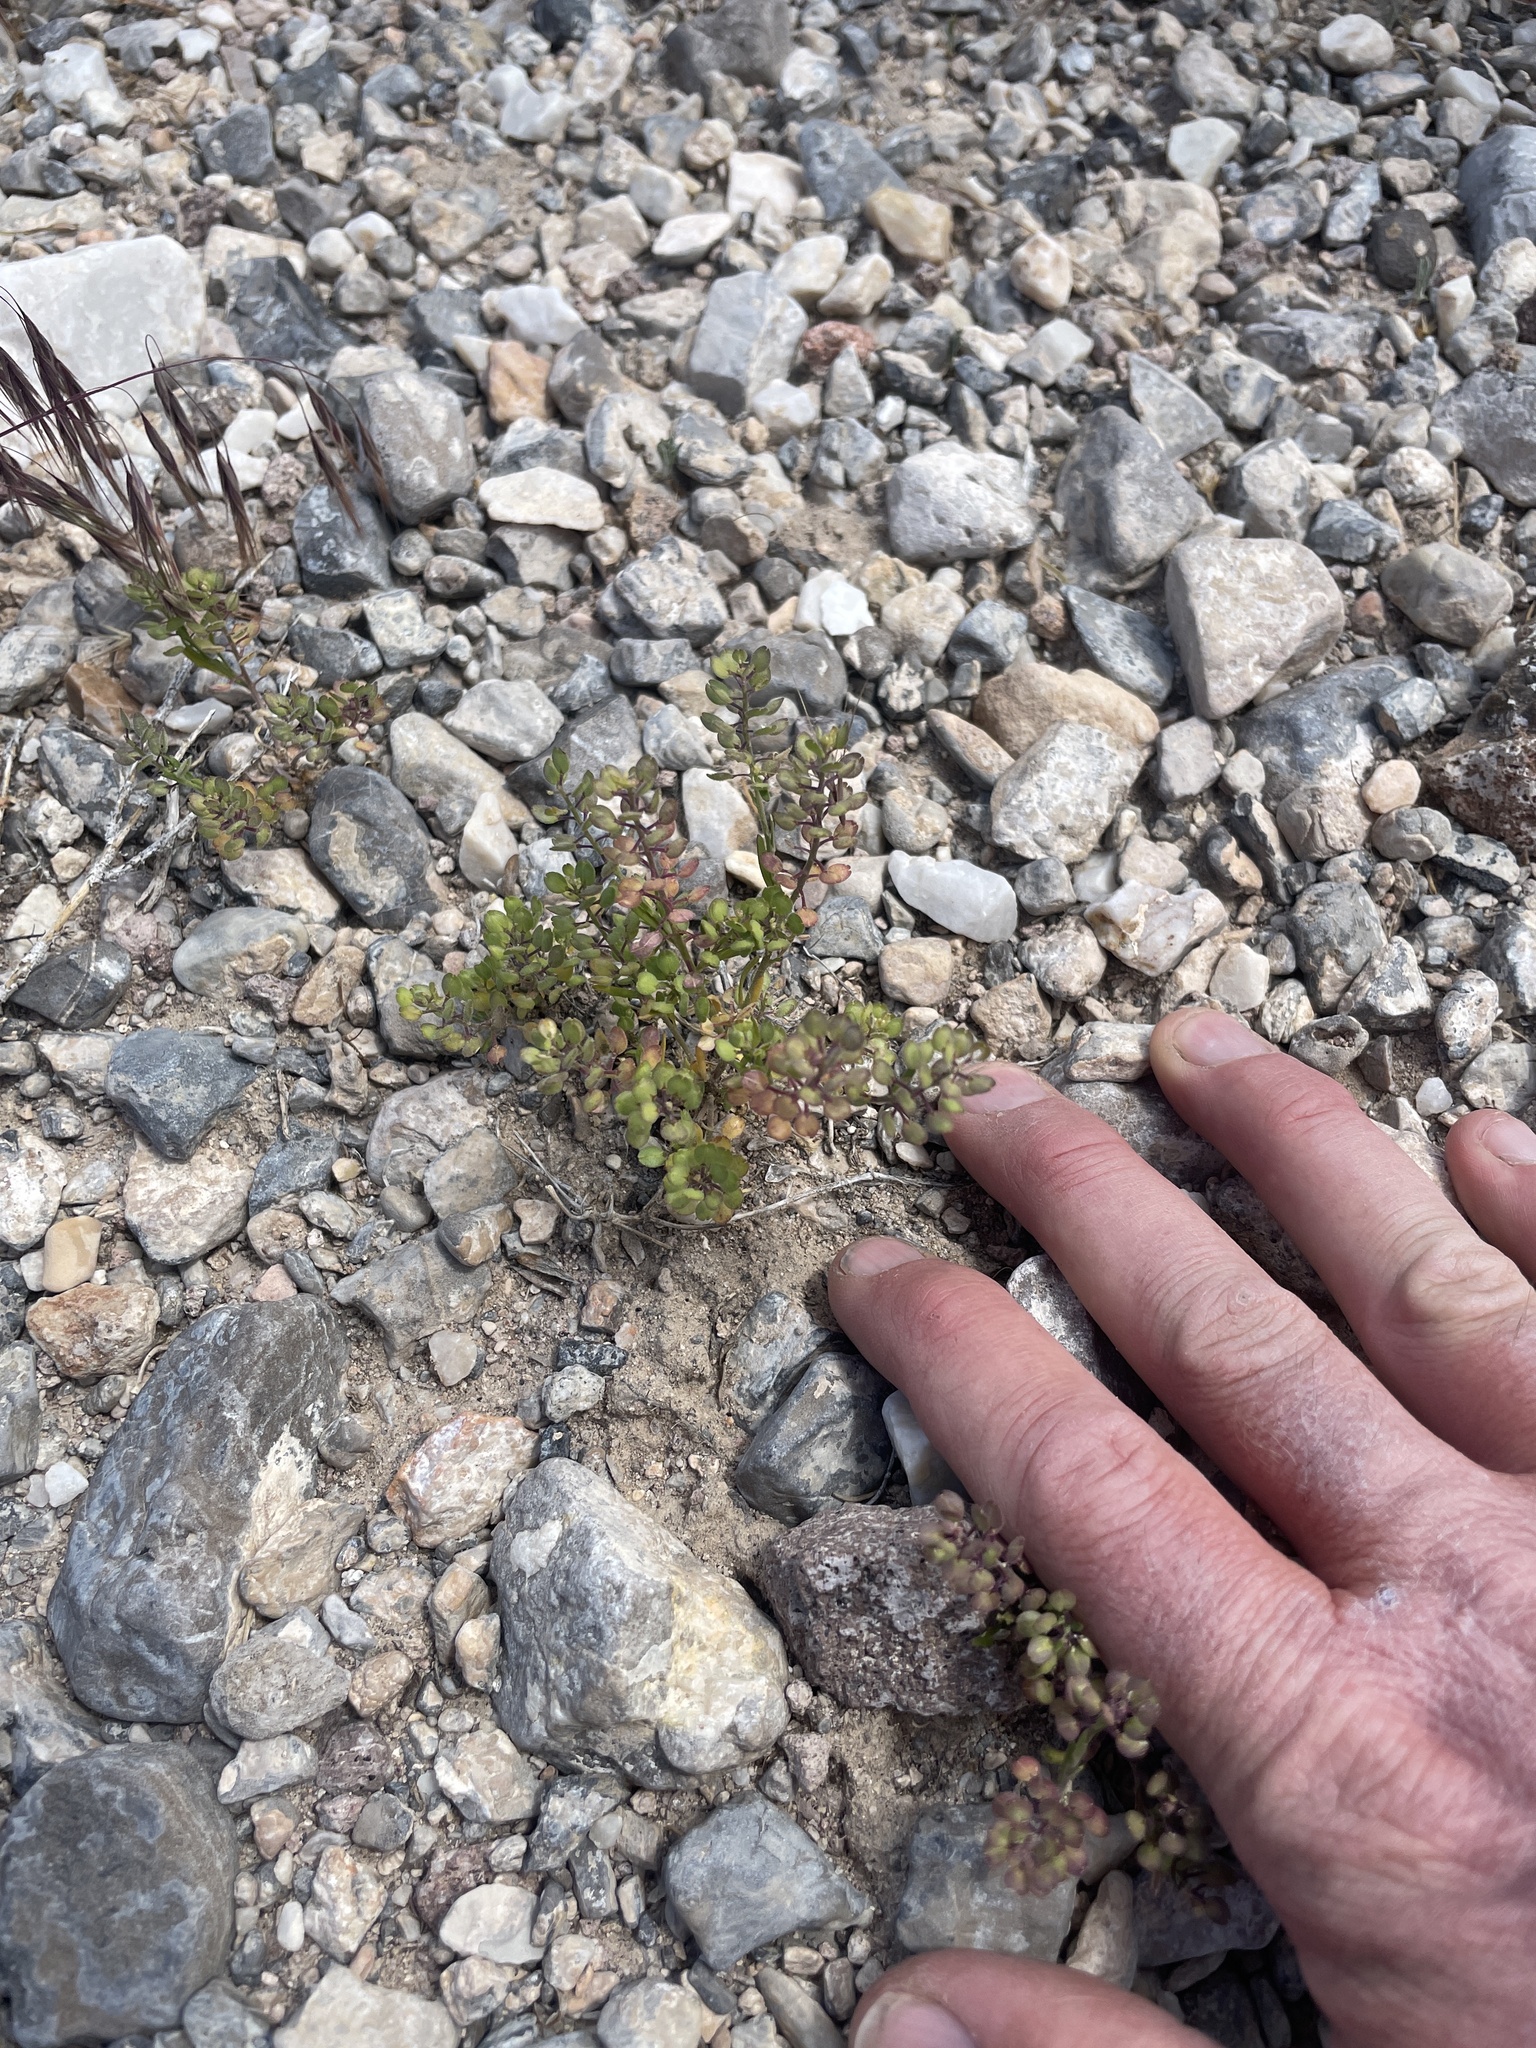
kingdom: Plantae
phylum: Tracheophyta
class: Magnoliopsida
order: Brassicales
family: Brassicaceae
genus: Lepidium
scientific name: Lepidium lasiocarpum
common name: Hairy-pod pepperwort
